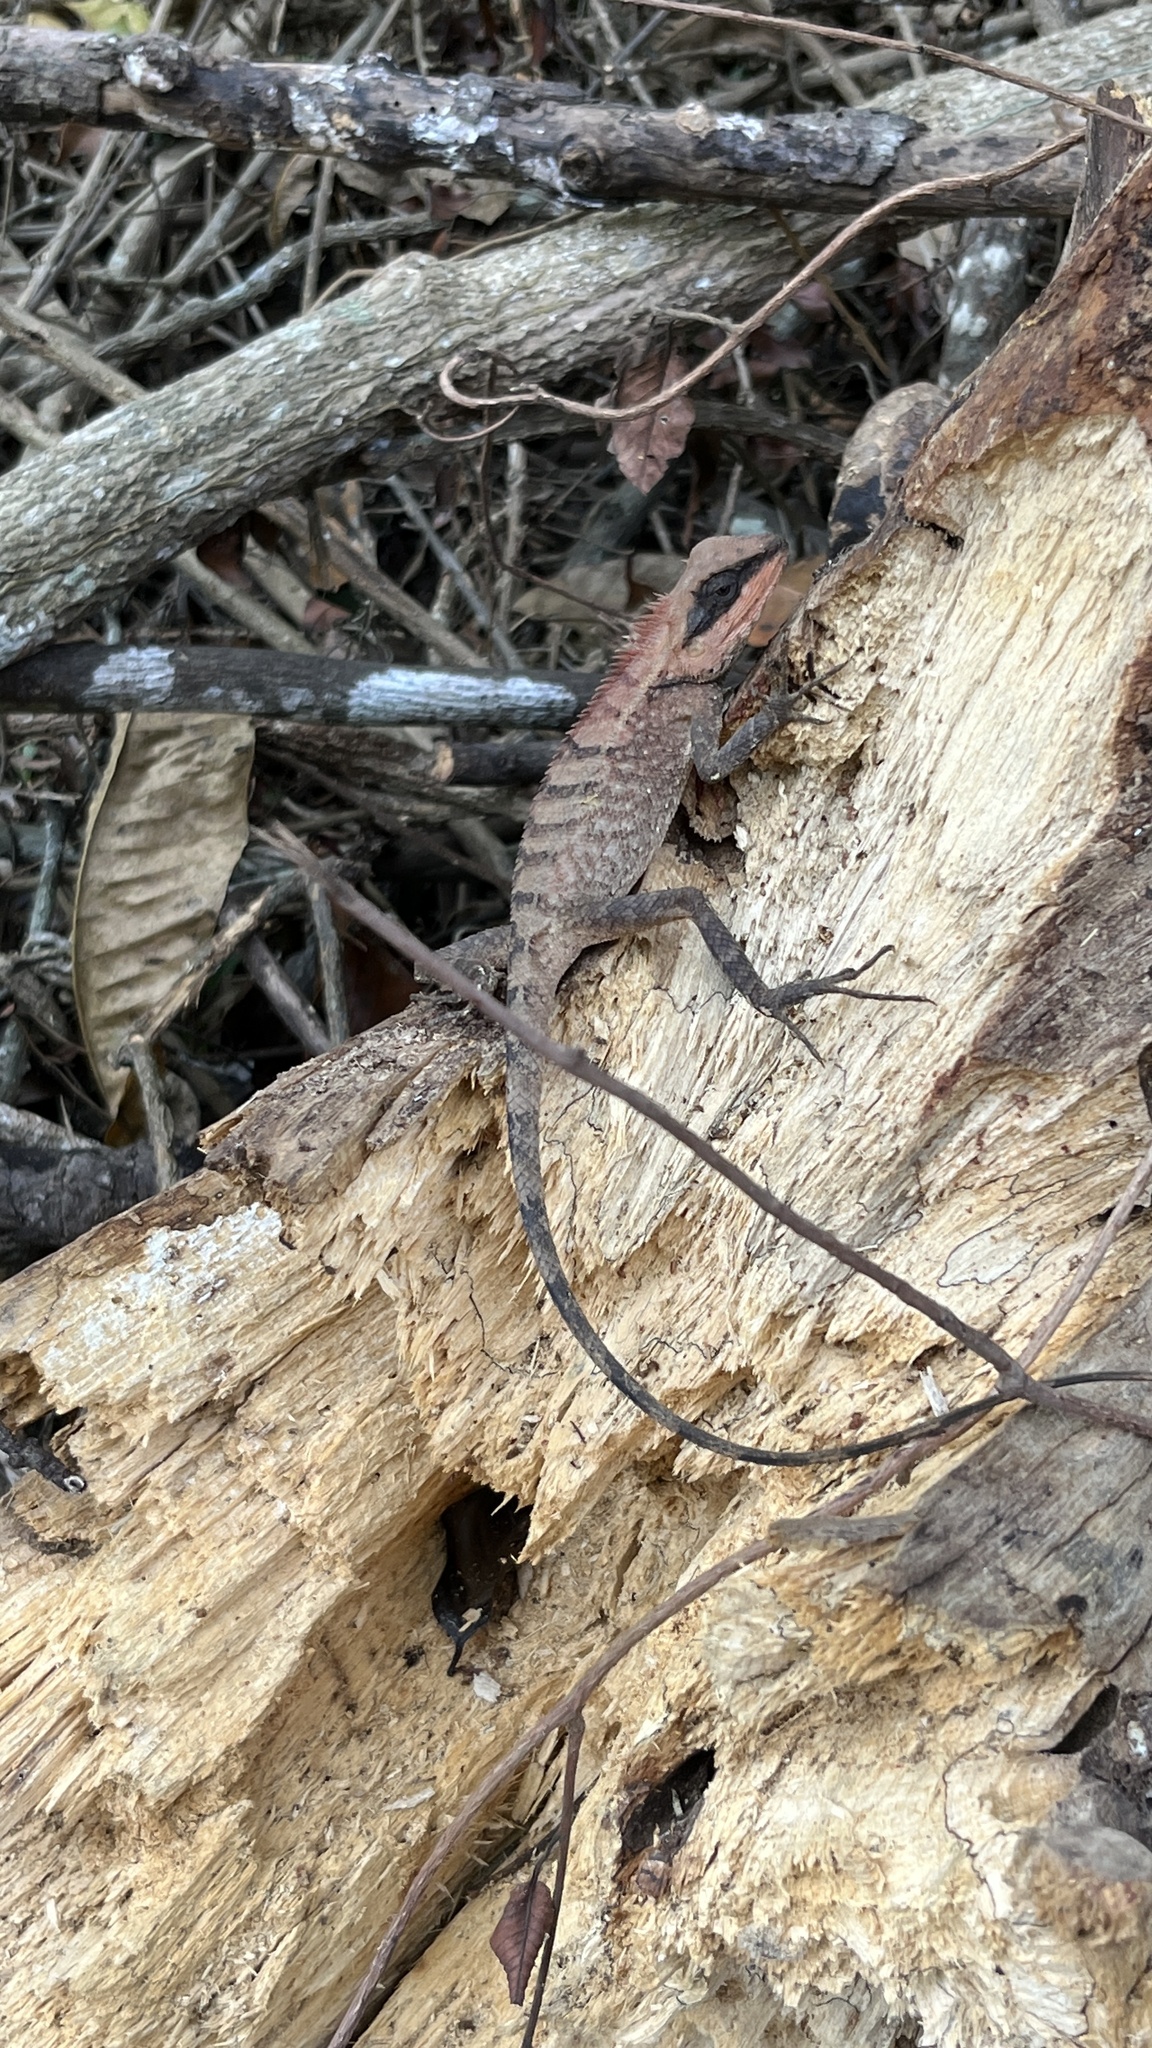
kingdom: Animalia
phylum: Chordata
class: Squamata
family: Agamidae
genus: Calotes
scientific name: Calotes emma
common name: Thailand bloodsucker
